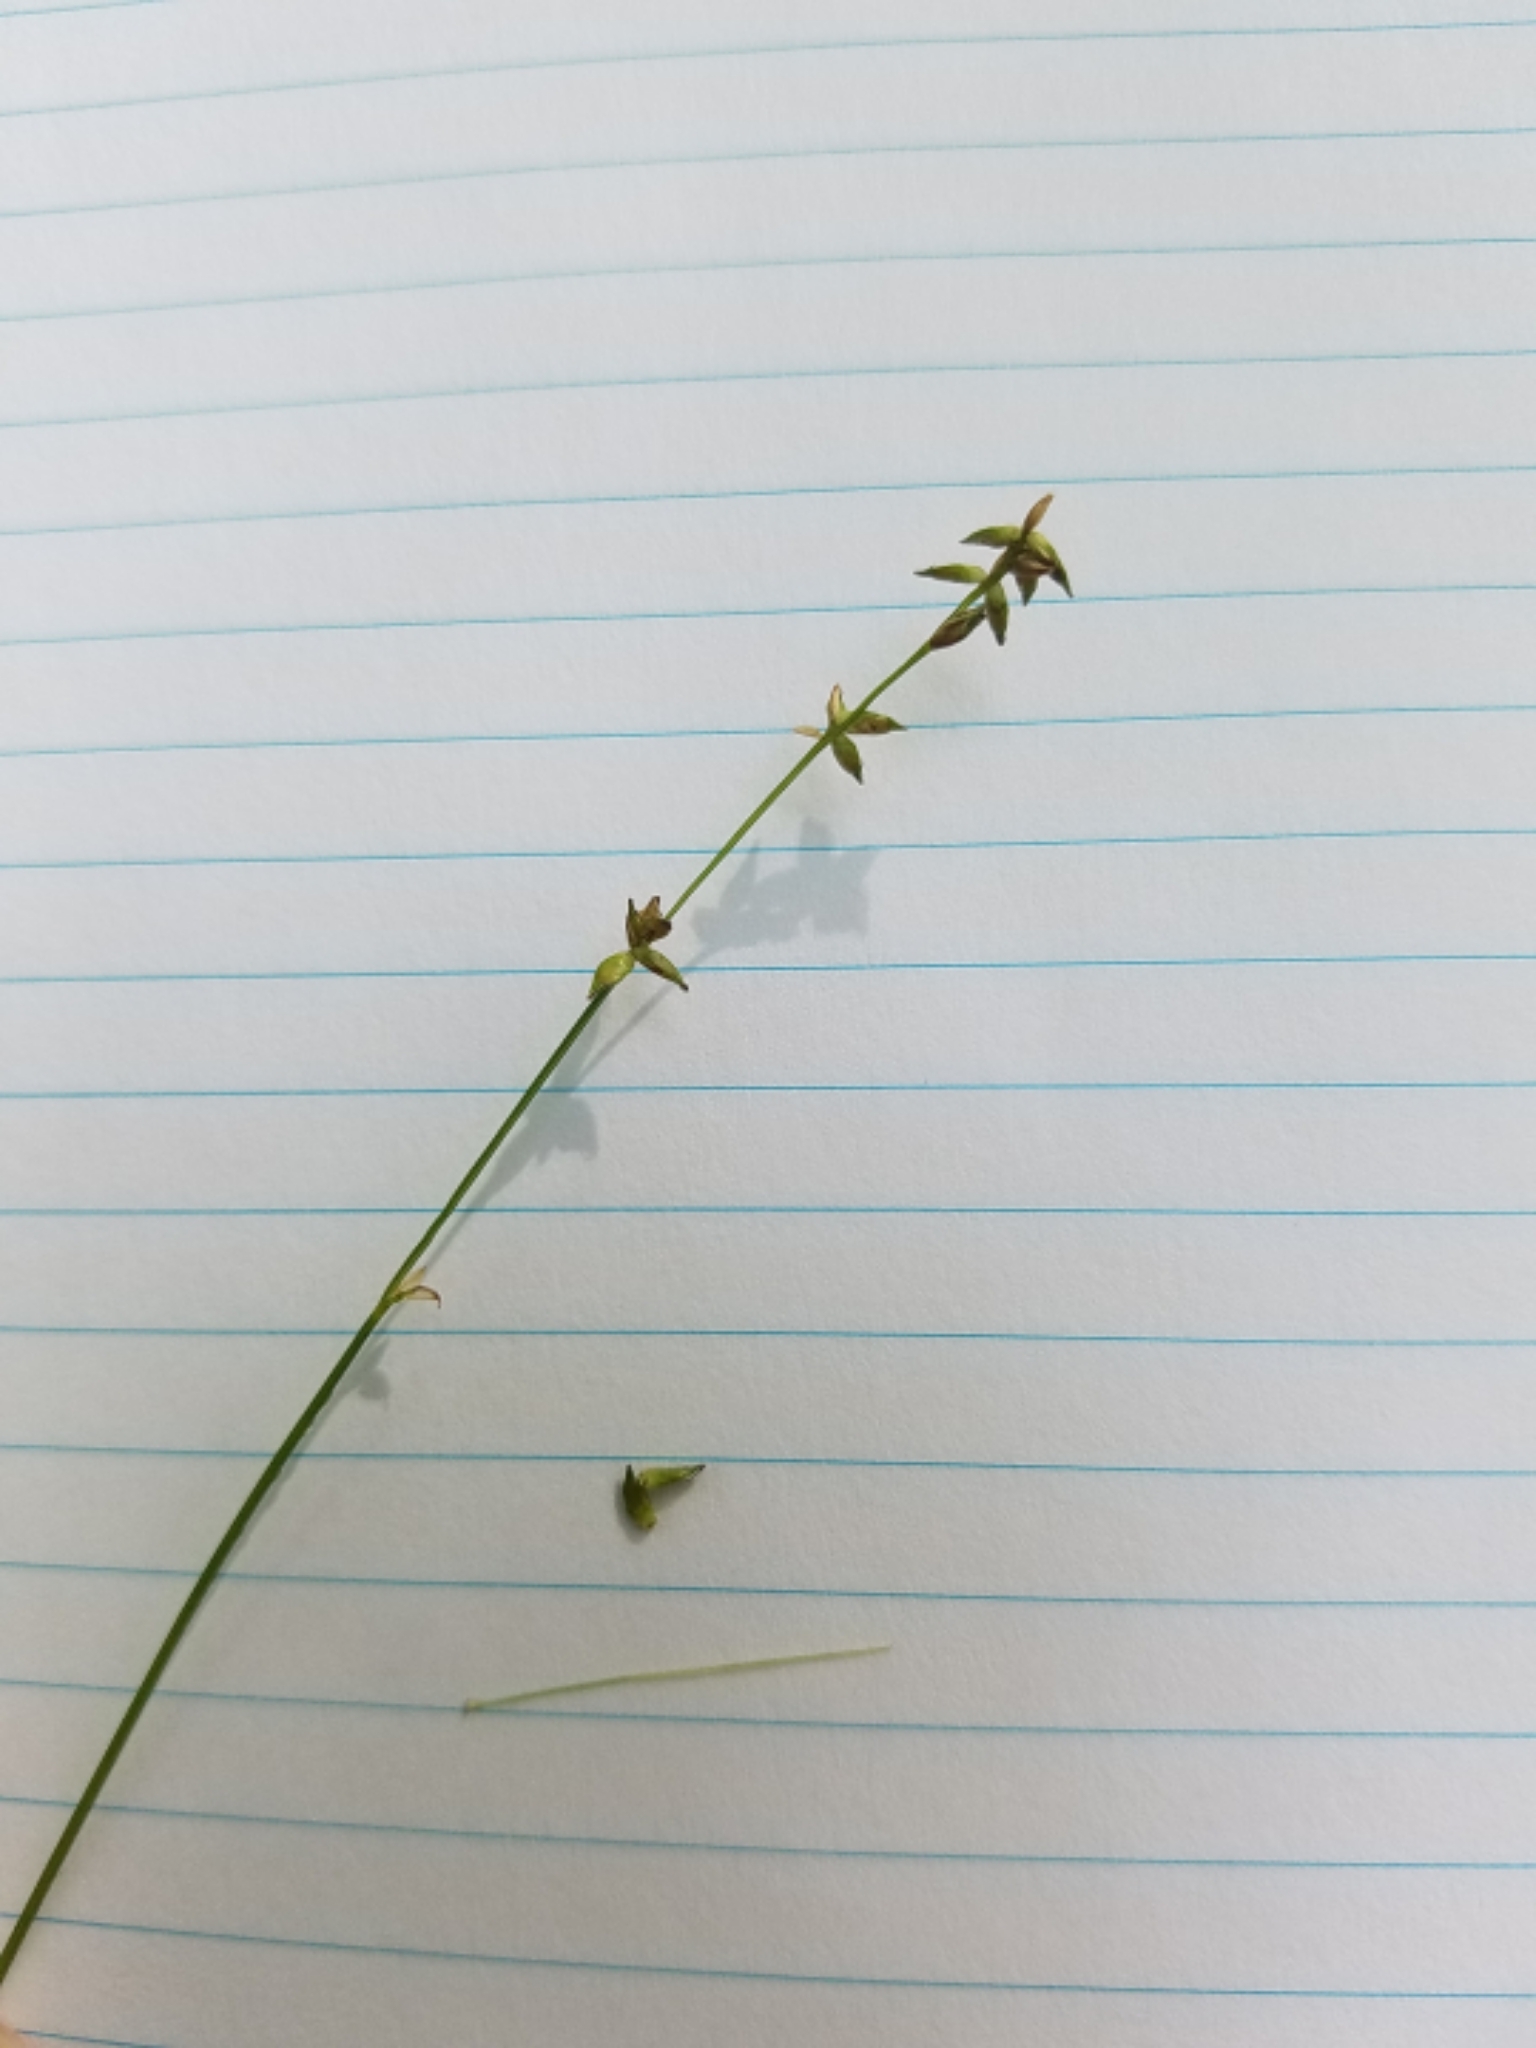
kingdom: Plantae
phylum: Tracheophyta
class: Liliopsida
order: Poales
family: Cyperaceae
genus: Carex
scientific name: Carex radiata
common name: Eastern star sedge
